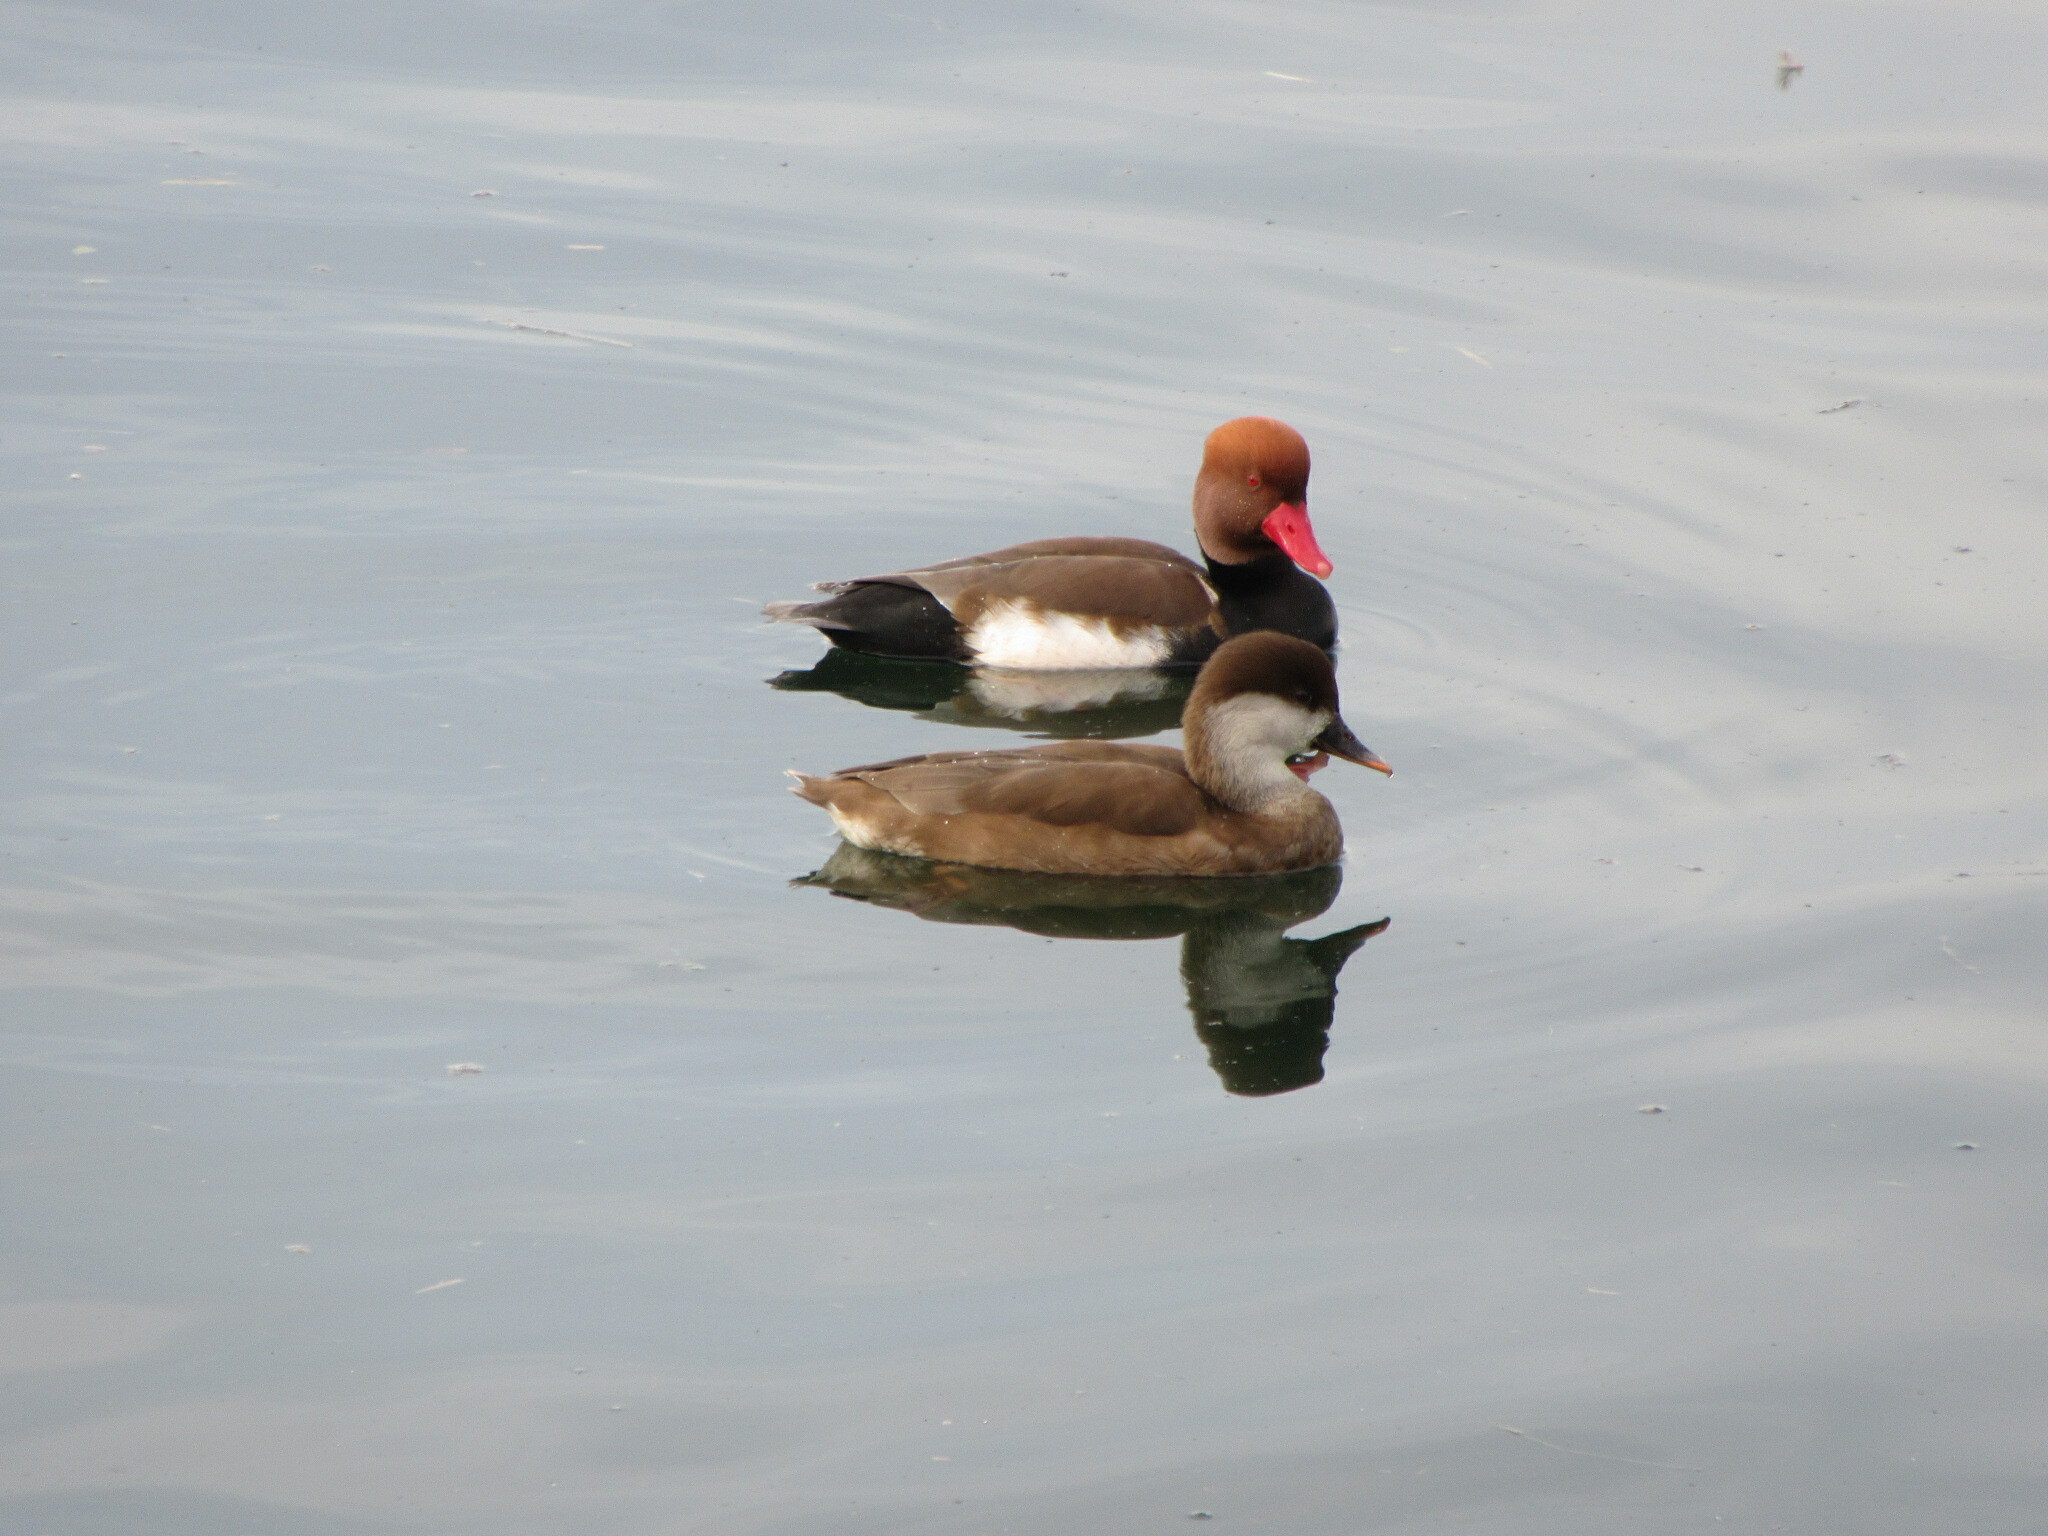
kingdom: Animalia
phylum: Chordata
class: Aves
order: Anseriformes
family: Anatidae
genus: Netta
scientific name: Netta rufina
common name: Red-crested pochard
